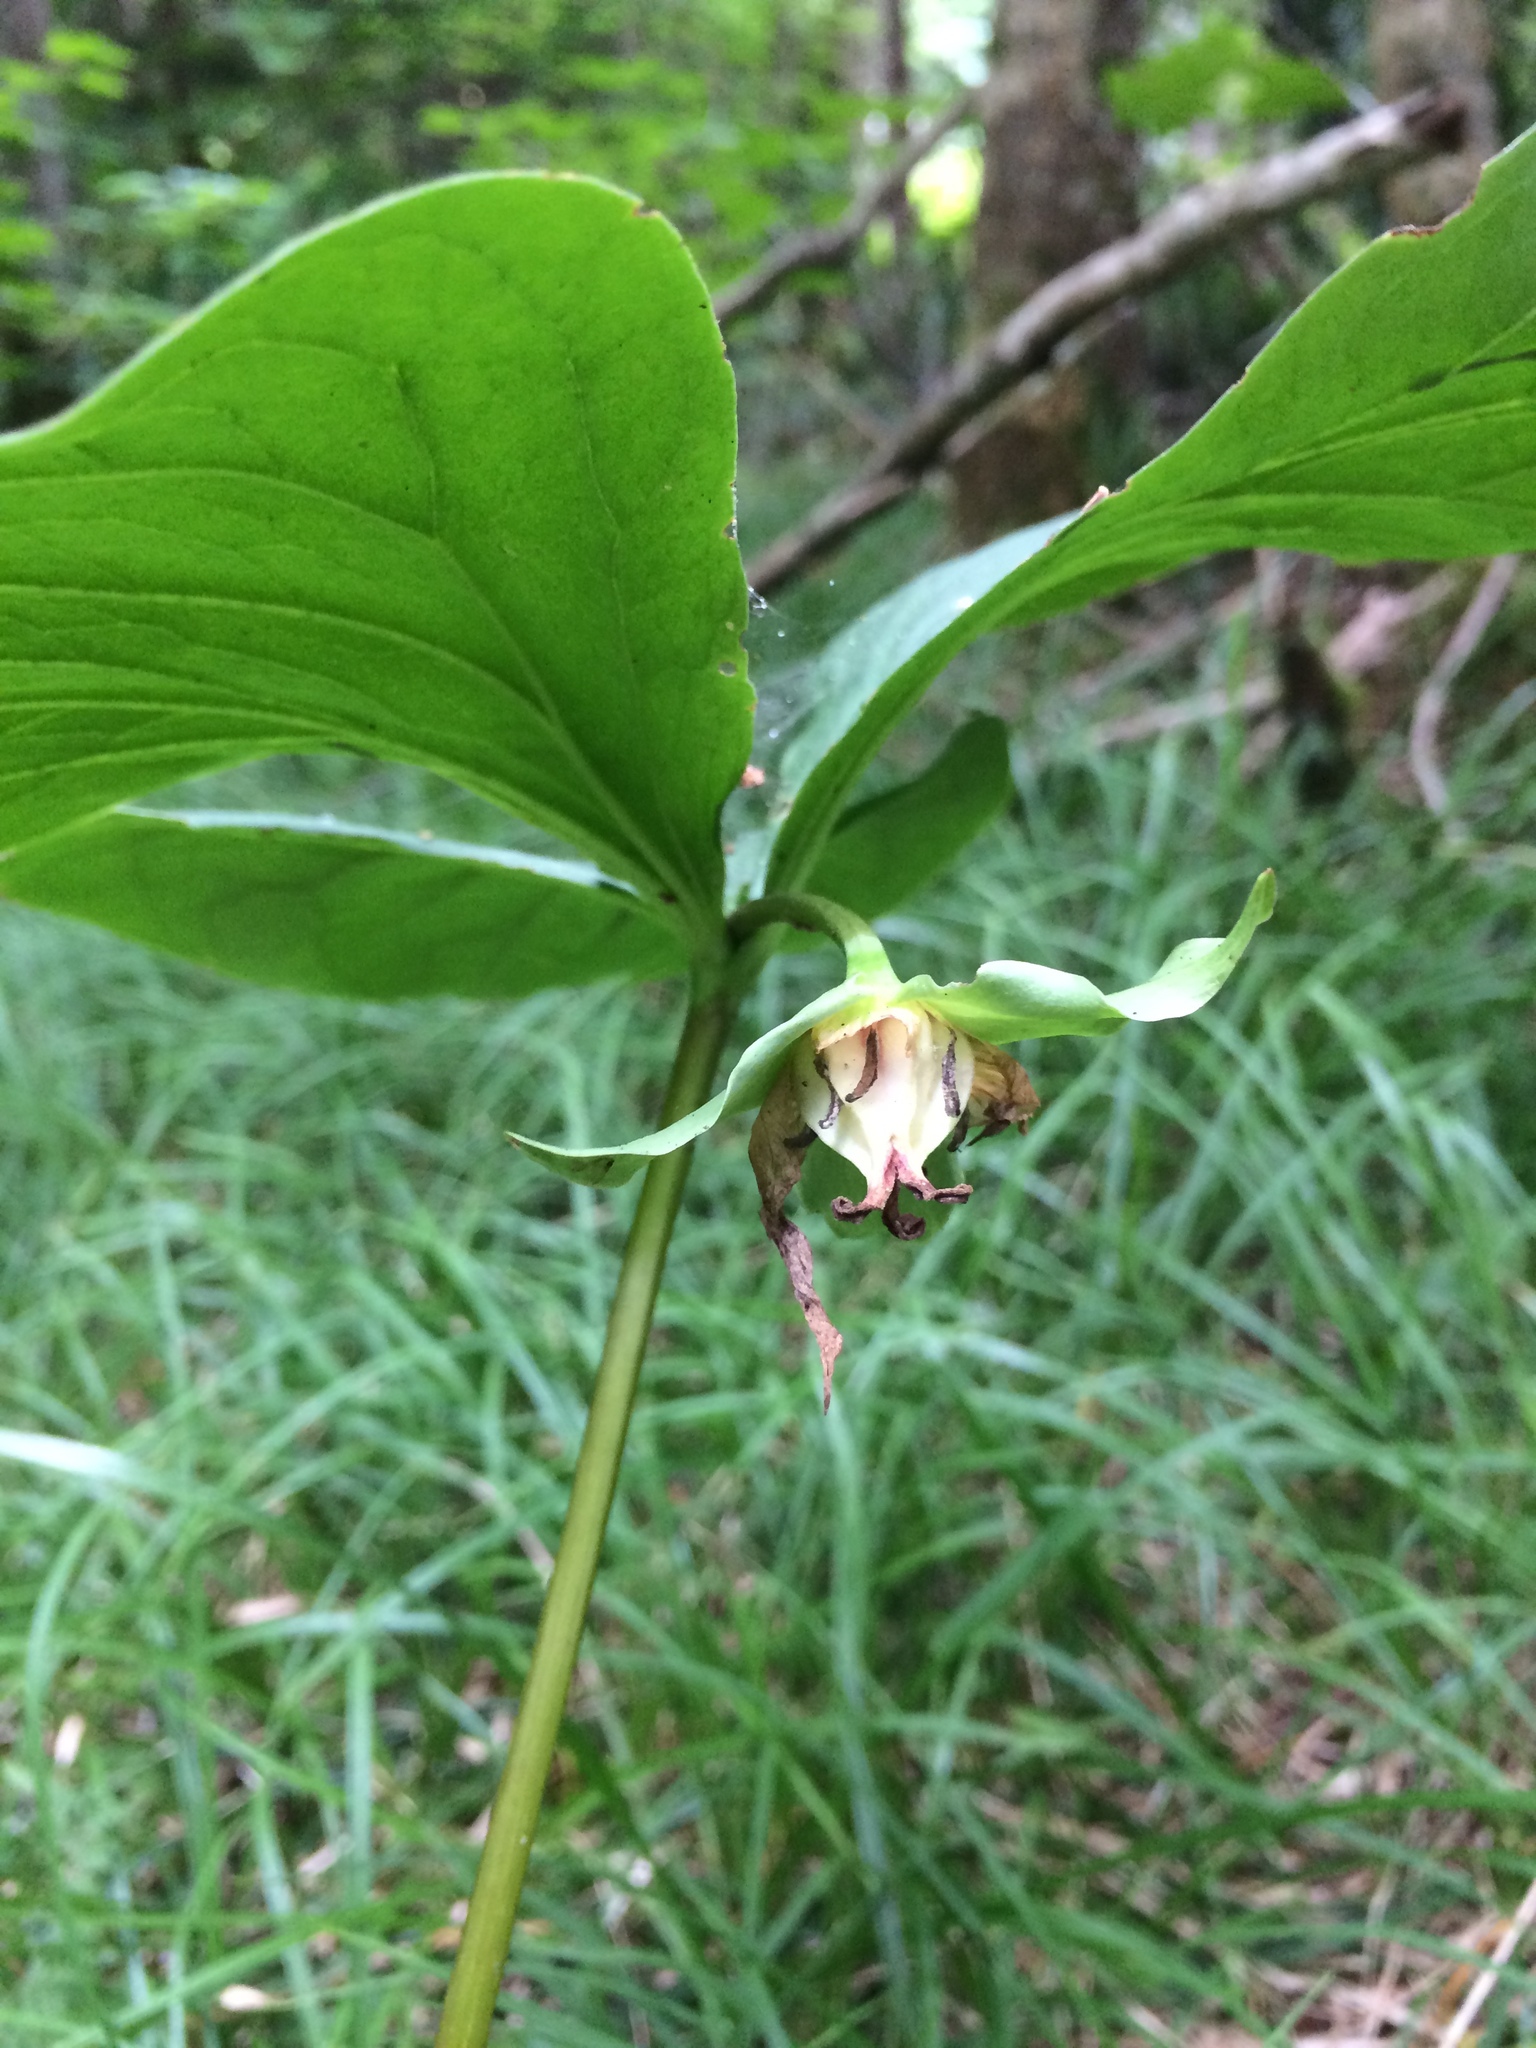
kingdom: Plantae
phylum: Tracheophyta
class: Liliopsida
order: Liliales
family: Melanthiaceae
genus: Trillium
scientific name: Trillium cernuum
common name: Nodding trillium
